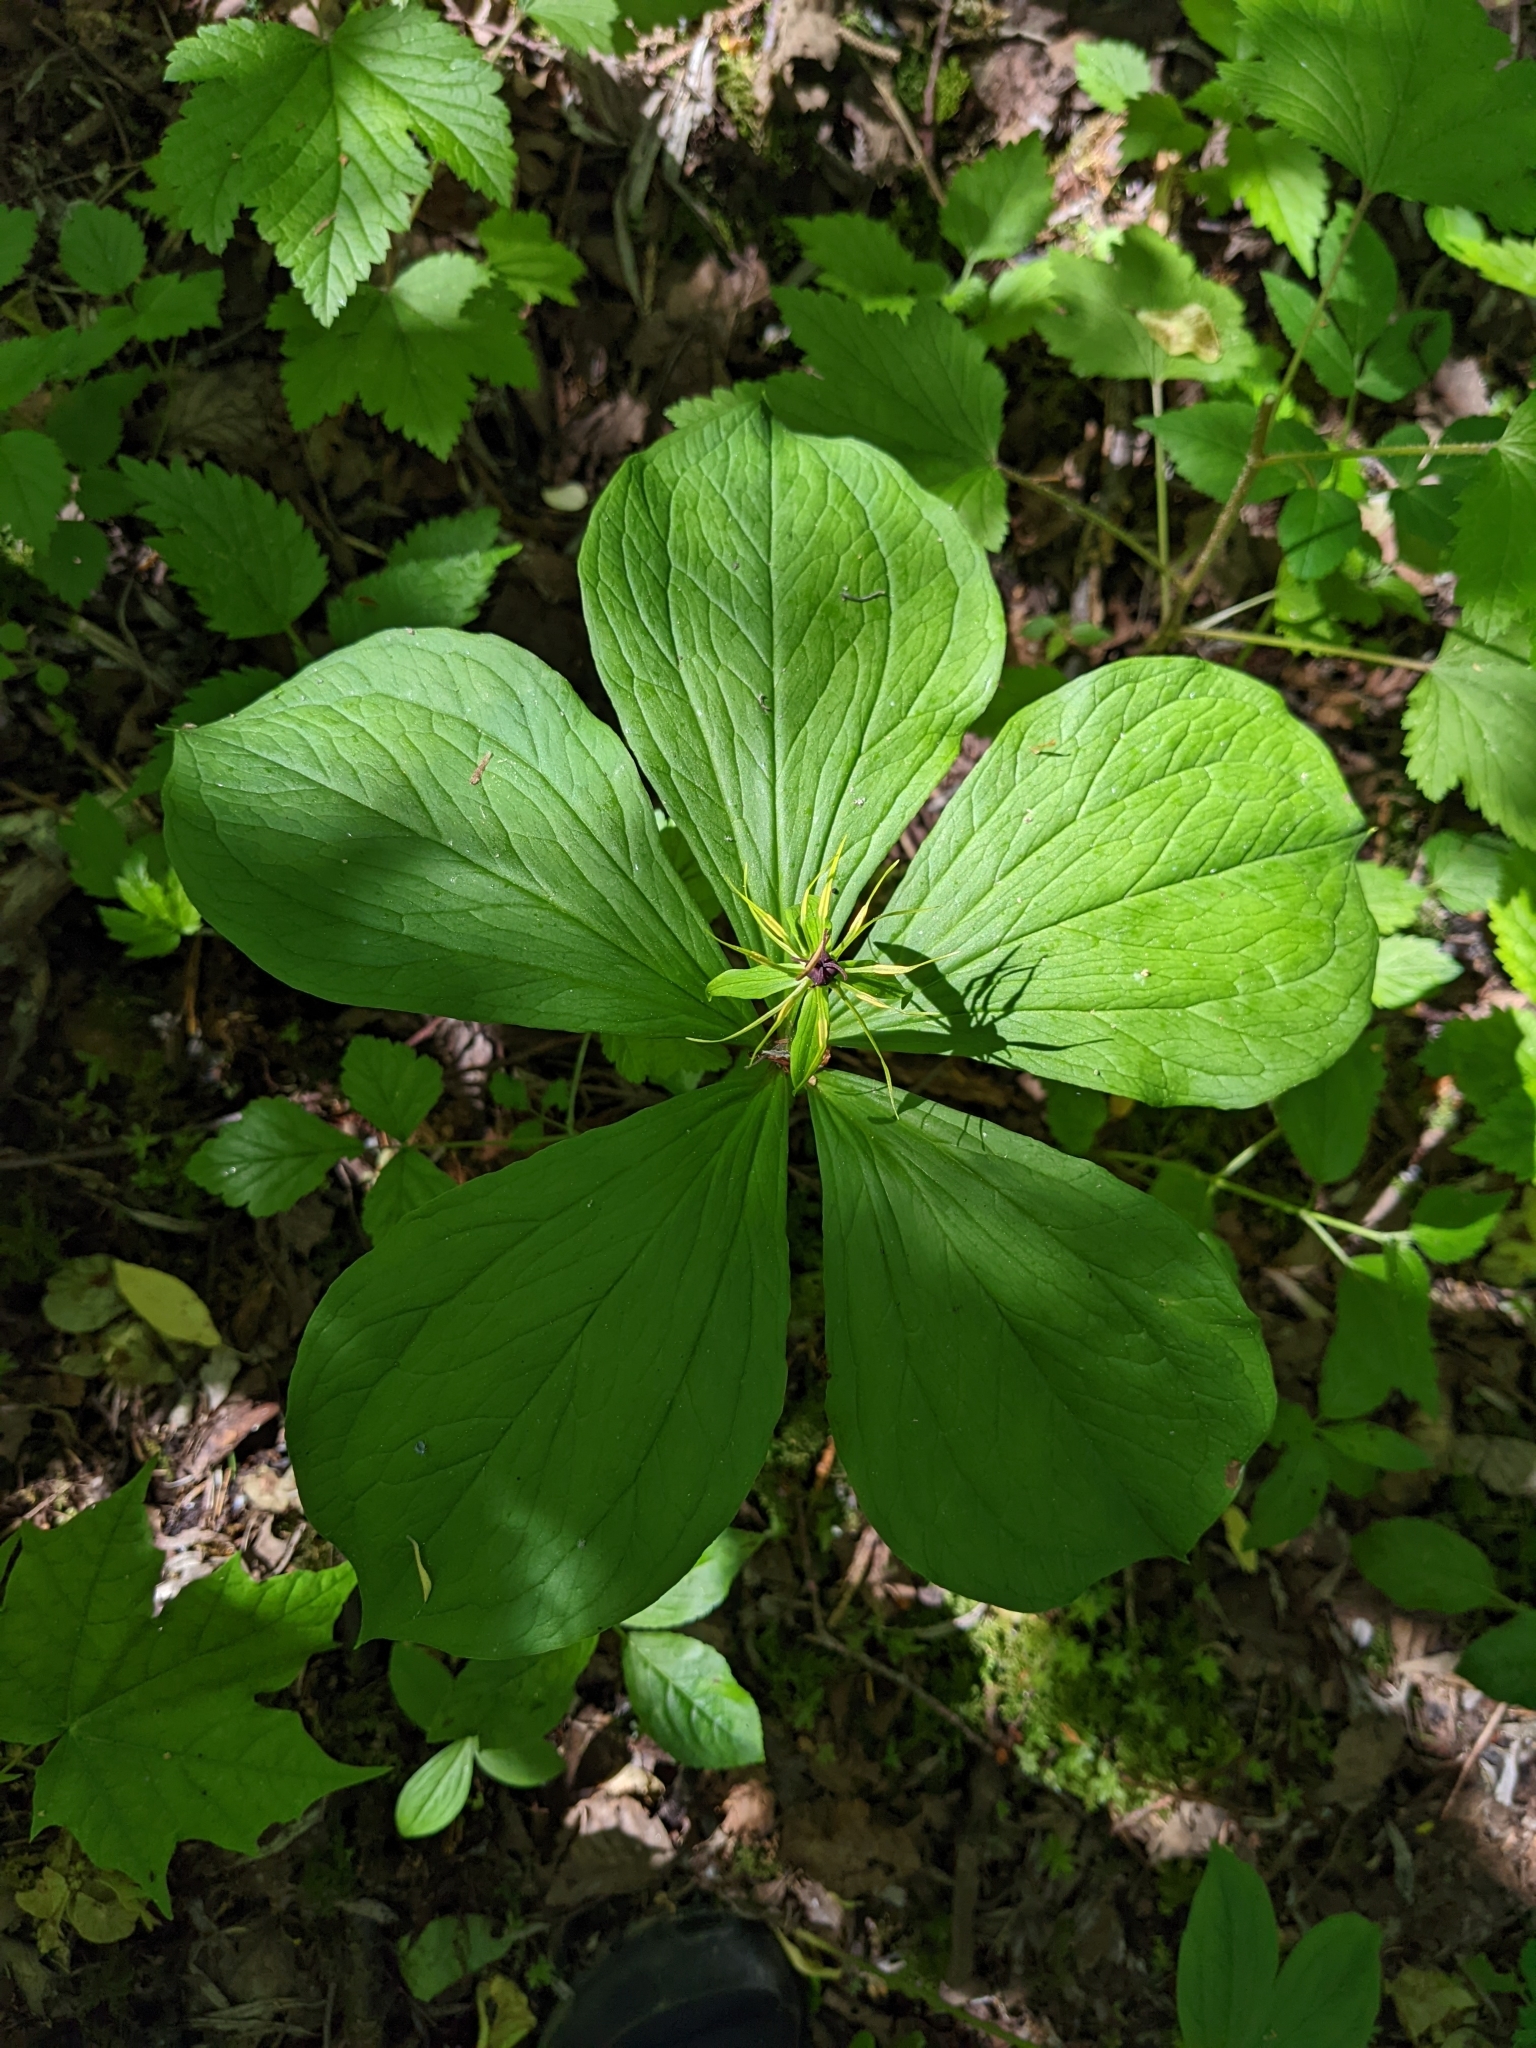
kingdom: Plantae
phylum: Tracheophyta
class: Liliopsida
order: Liliales
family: Melanthiaceae
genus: Paris
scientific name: Paris quadrifolia
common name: Herb-paris
